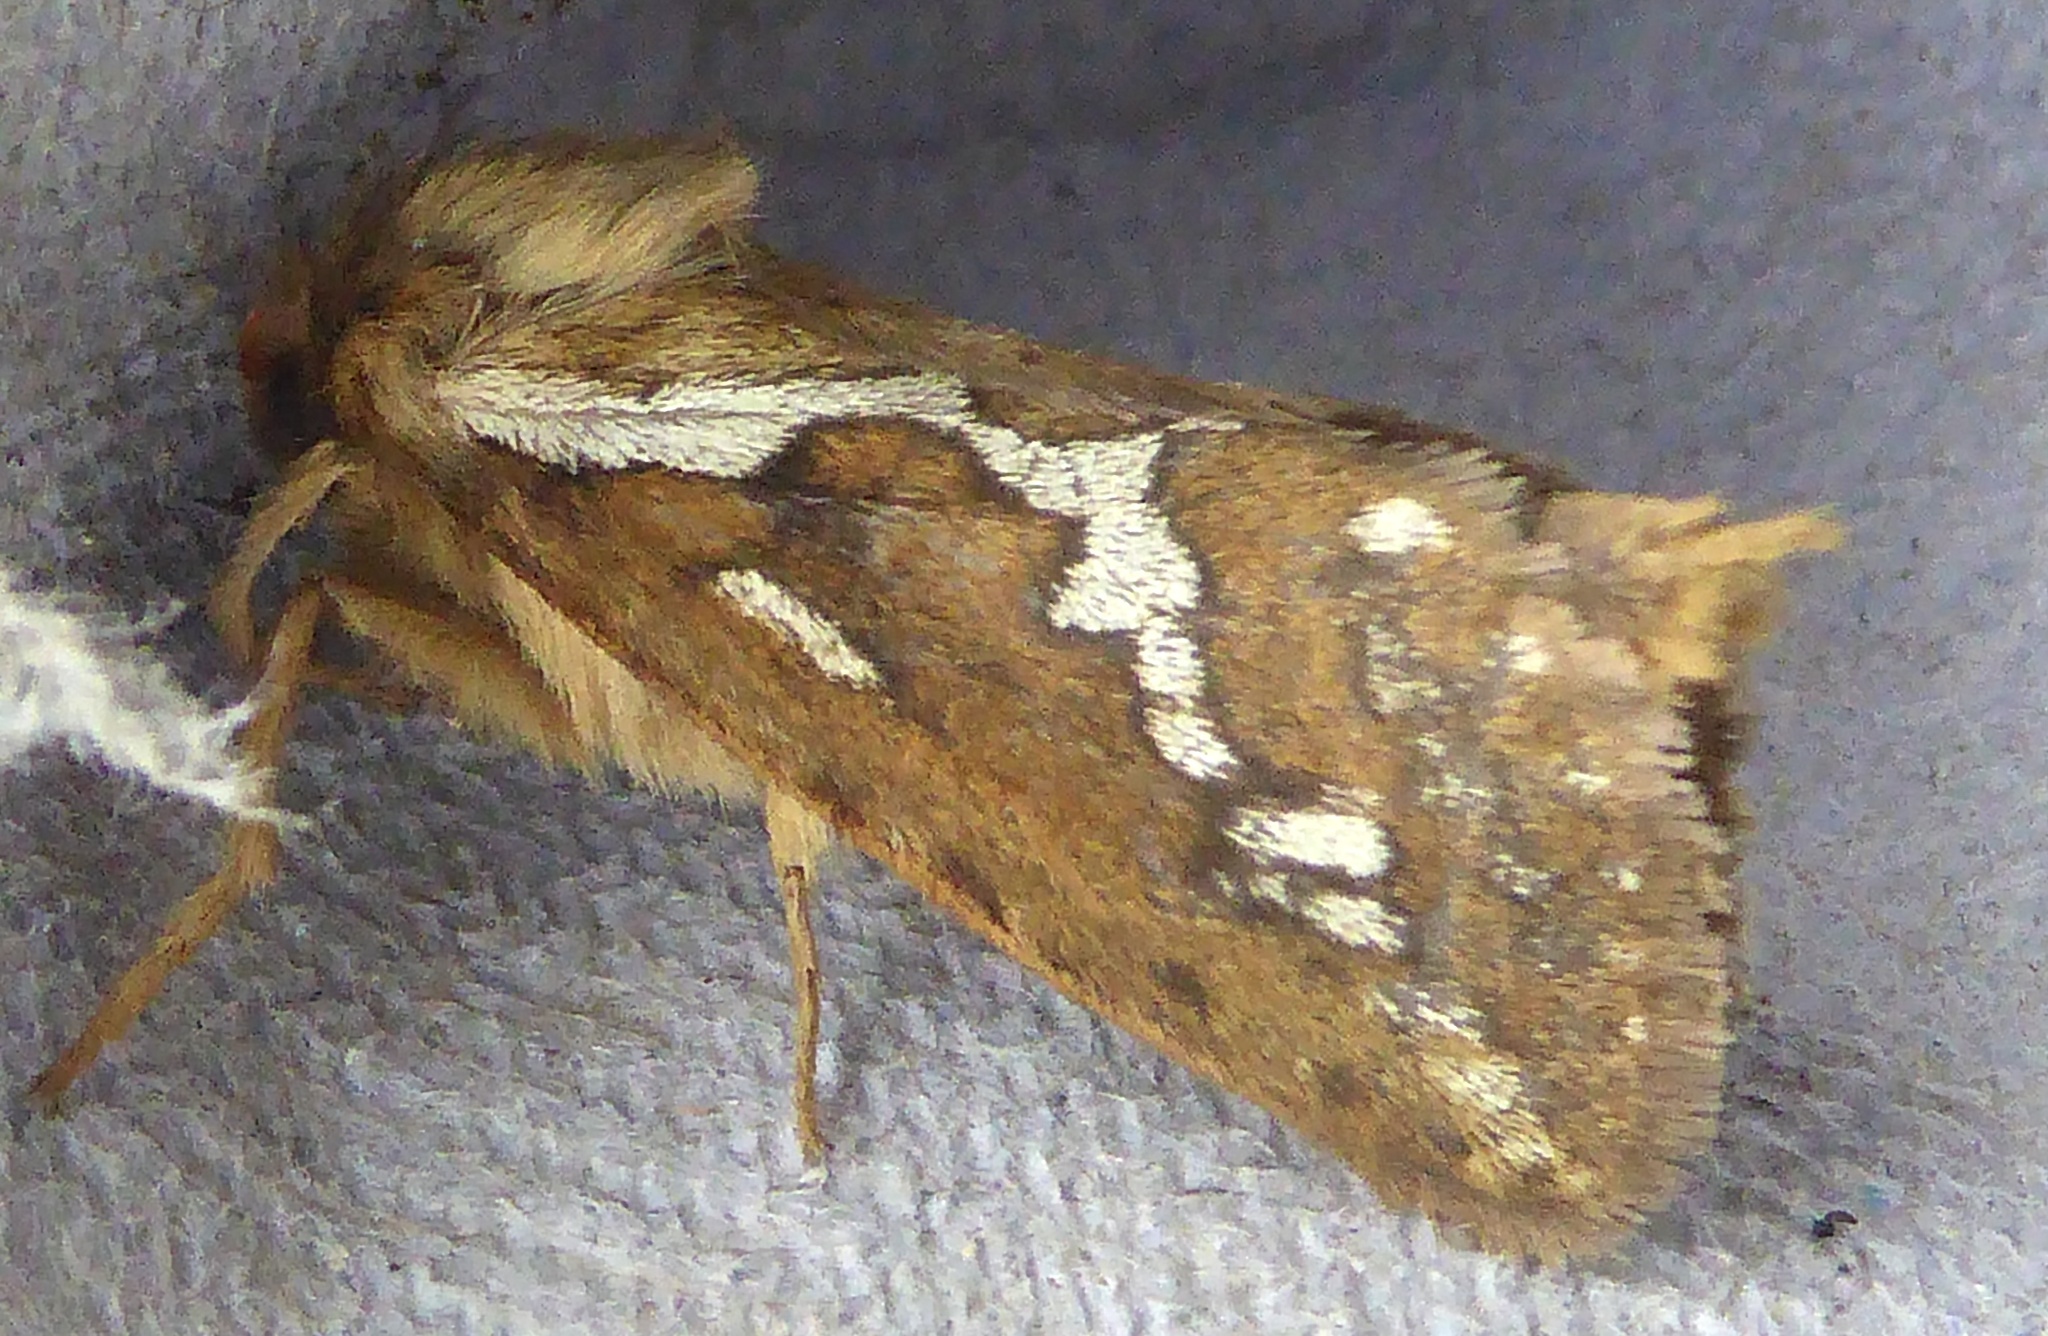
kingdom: Animalia
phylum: Arthropoda
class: Insecta
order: Lepidoptera
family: Hepialidae
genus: Korscheltellus
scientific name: Korscheltellus lupulina
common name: Common swift
